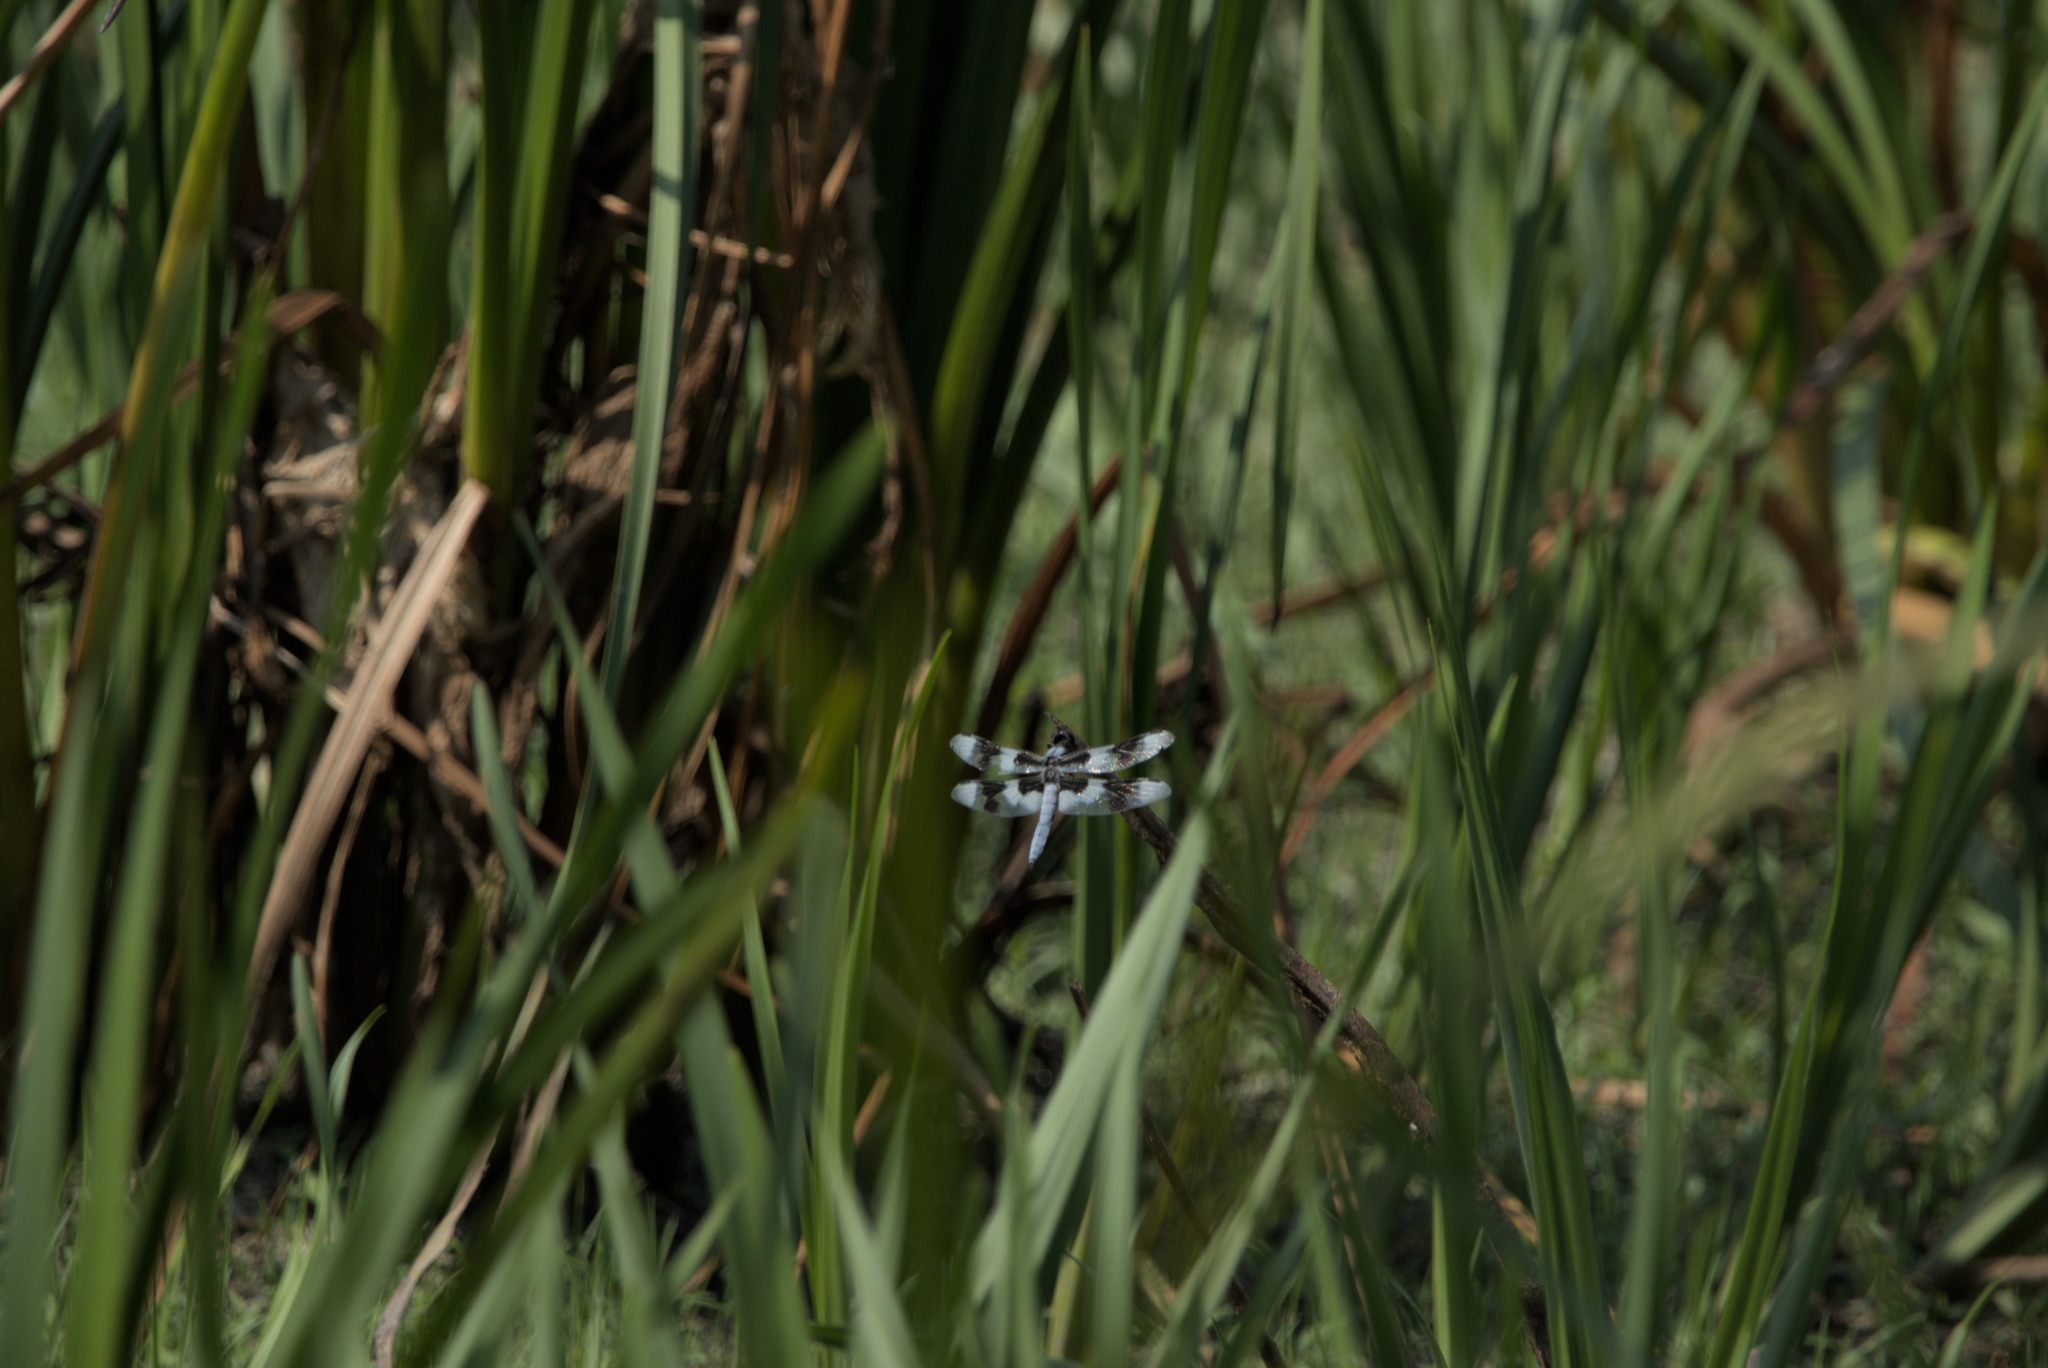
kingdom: Animalia
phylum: Arthropoda
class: Insecta
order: Odonata
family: Libellulidae
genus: Libellula
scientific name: Libellula forensis
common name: Eight-spotted skimmer
